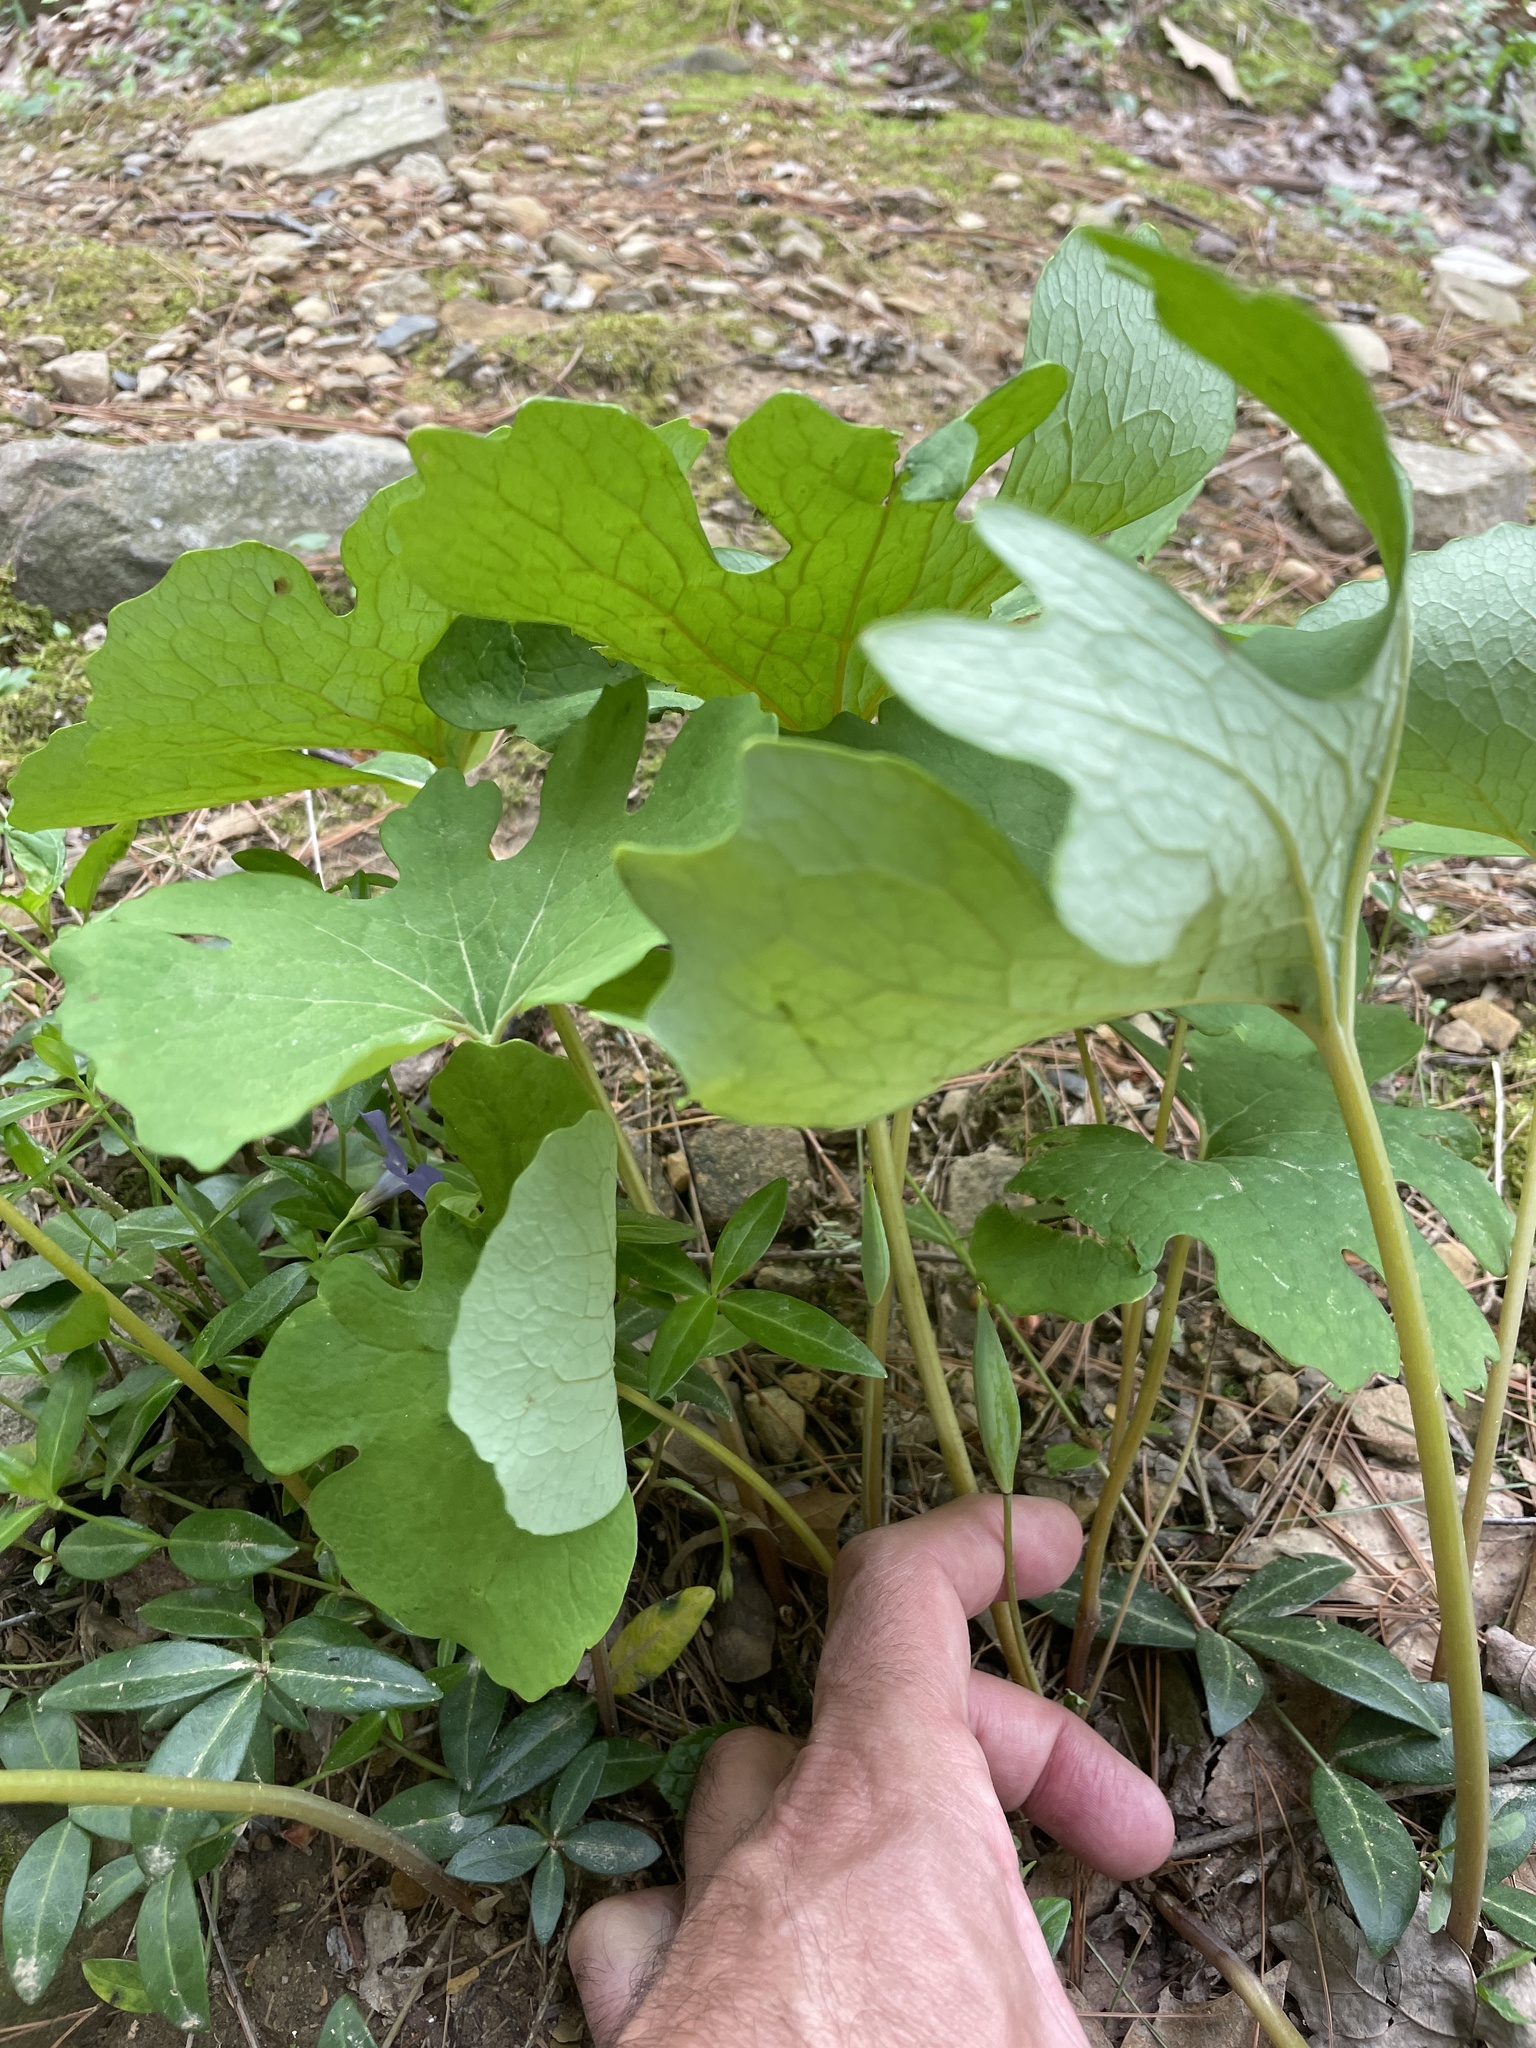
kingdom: Plantae
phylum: Tracheophyta
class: Magnoliopsida
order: Ranunculales
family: Papaveraceae
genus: Sanguinaria
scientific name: Sanguinaria canadensis
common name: Bloodroot
